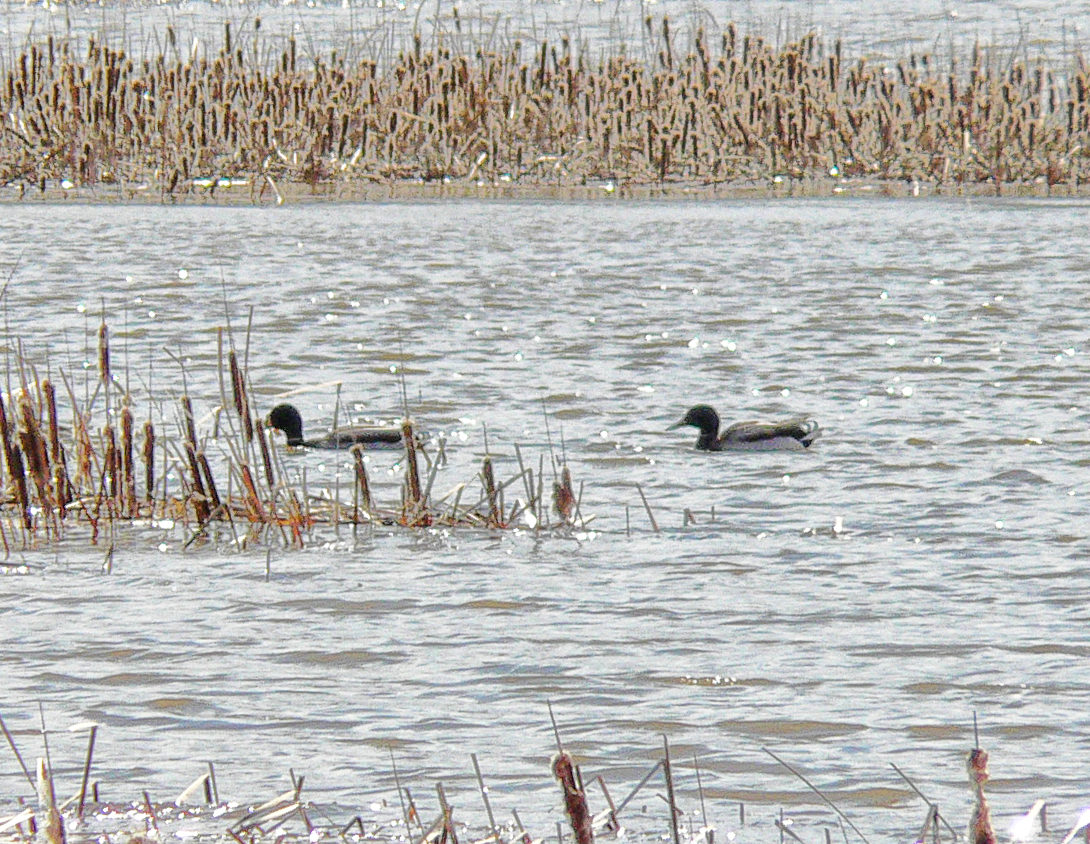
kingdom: Animalia
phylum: Chordata
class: Aves
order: Anseriformes
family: Anatidae
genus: Anas
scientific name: Anas platyrhynchos
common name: Mallard
